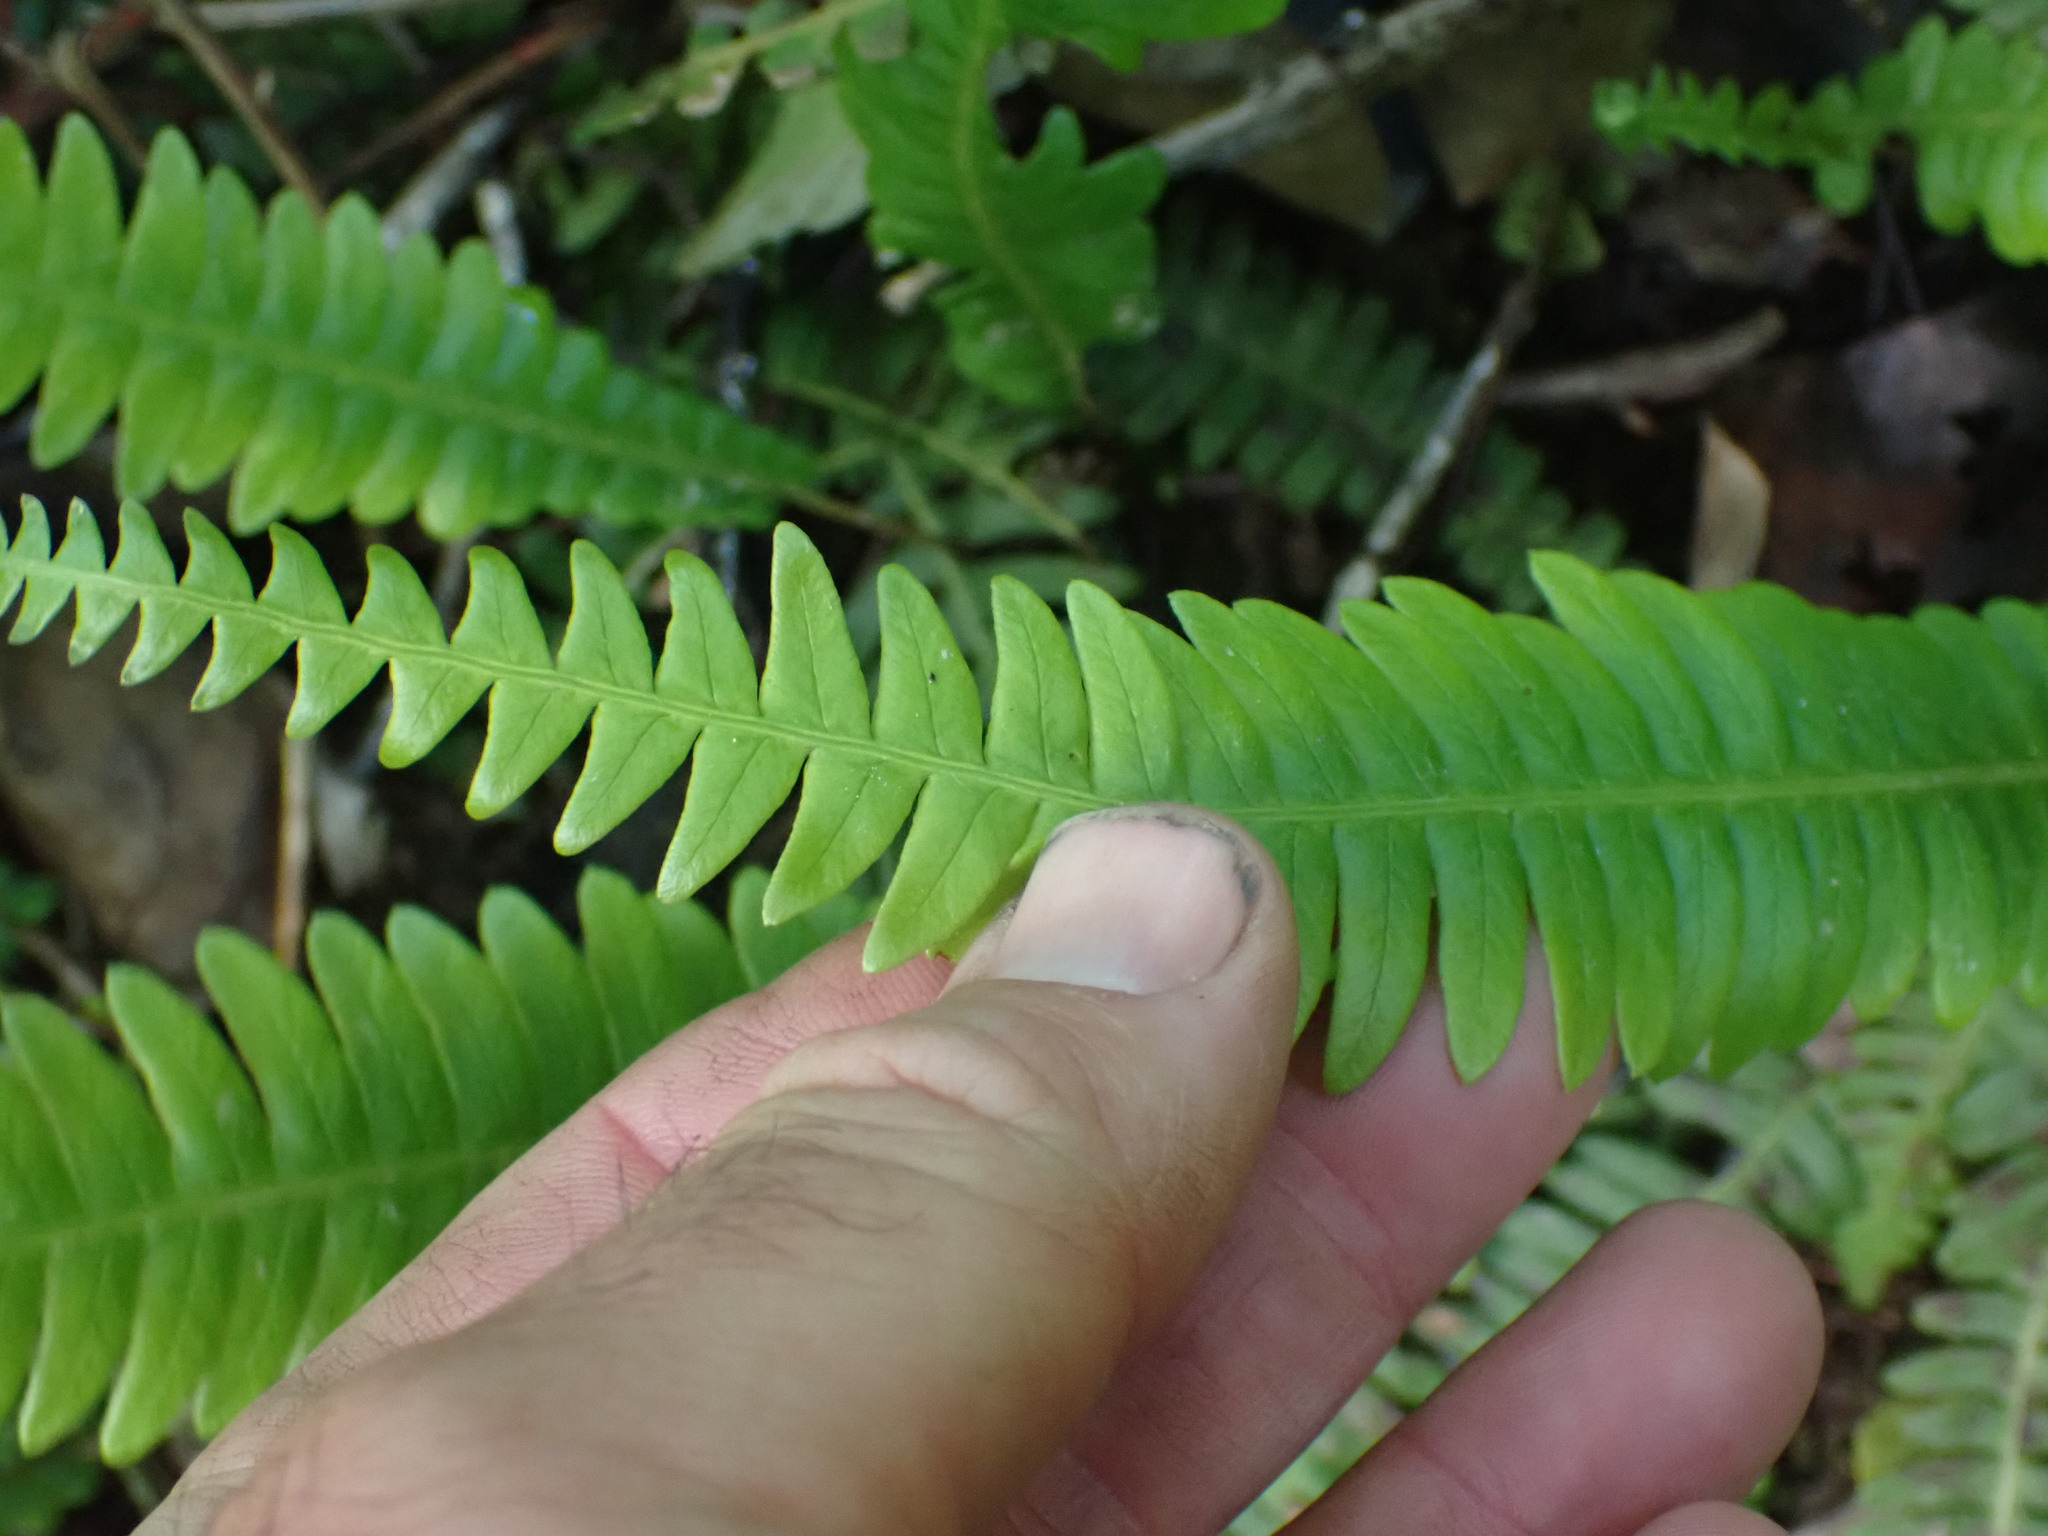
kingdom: Plantae
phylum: Tracheophyta
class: Polypodiopsida
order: Polypodiales
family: Blechnaceae
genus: Struthiopteris
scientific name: Struthiopteris spicant
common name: Deer fern
